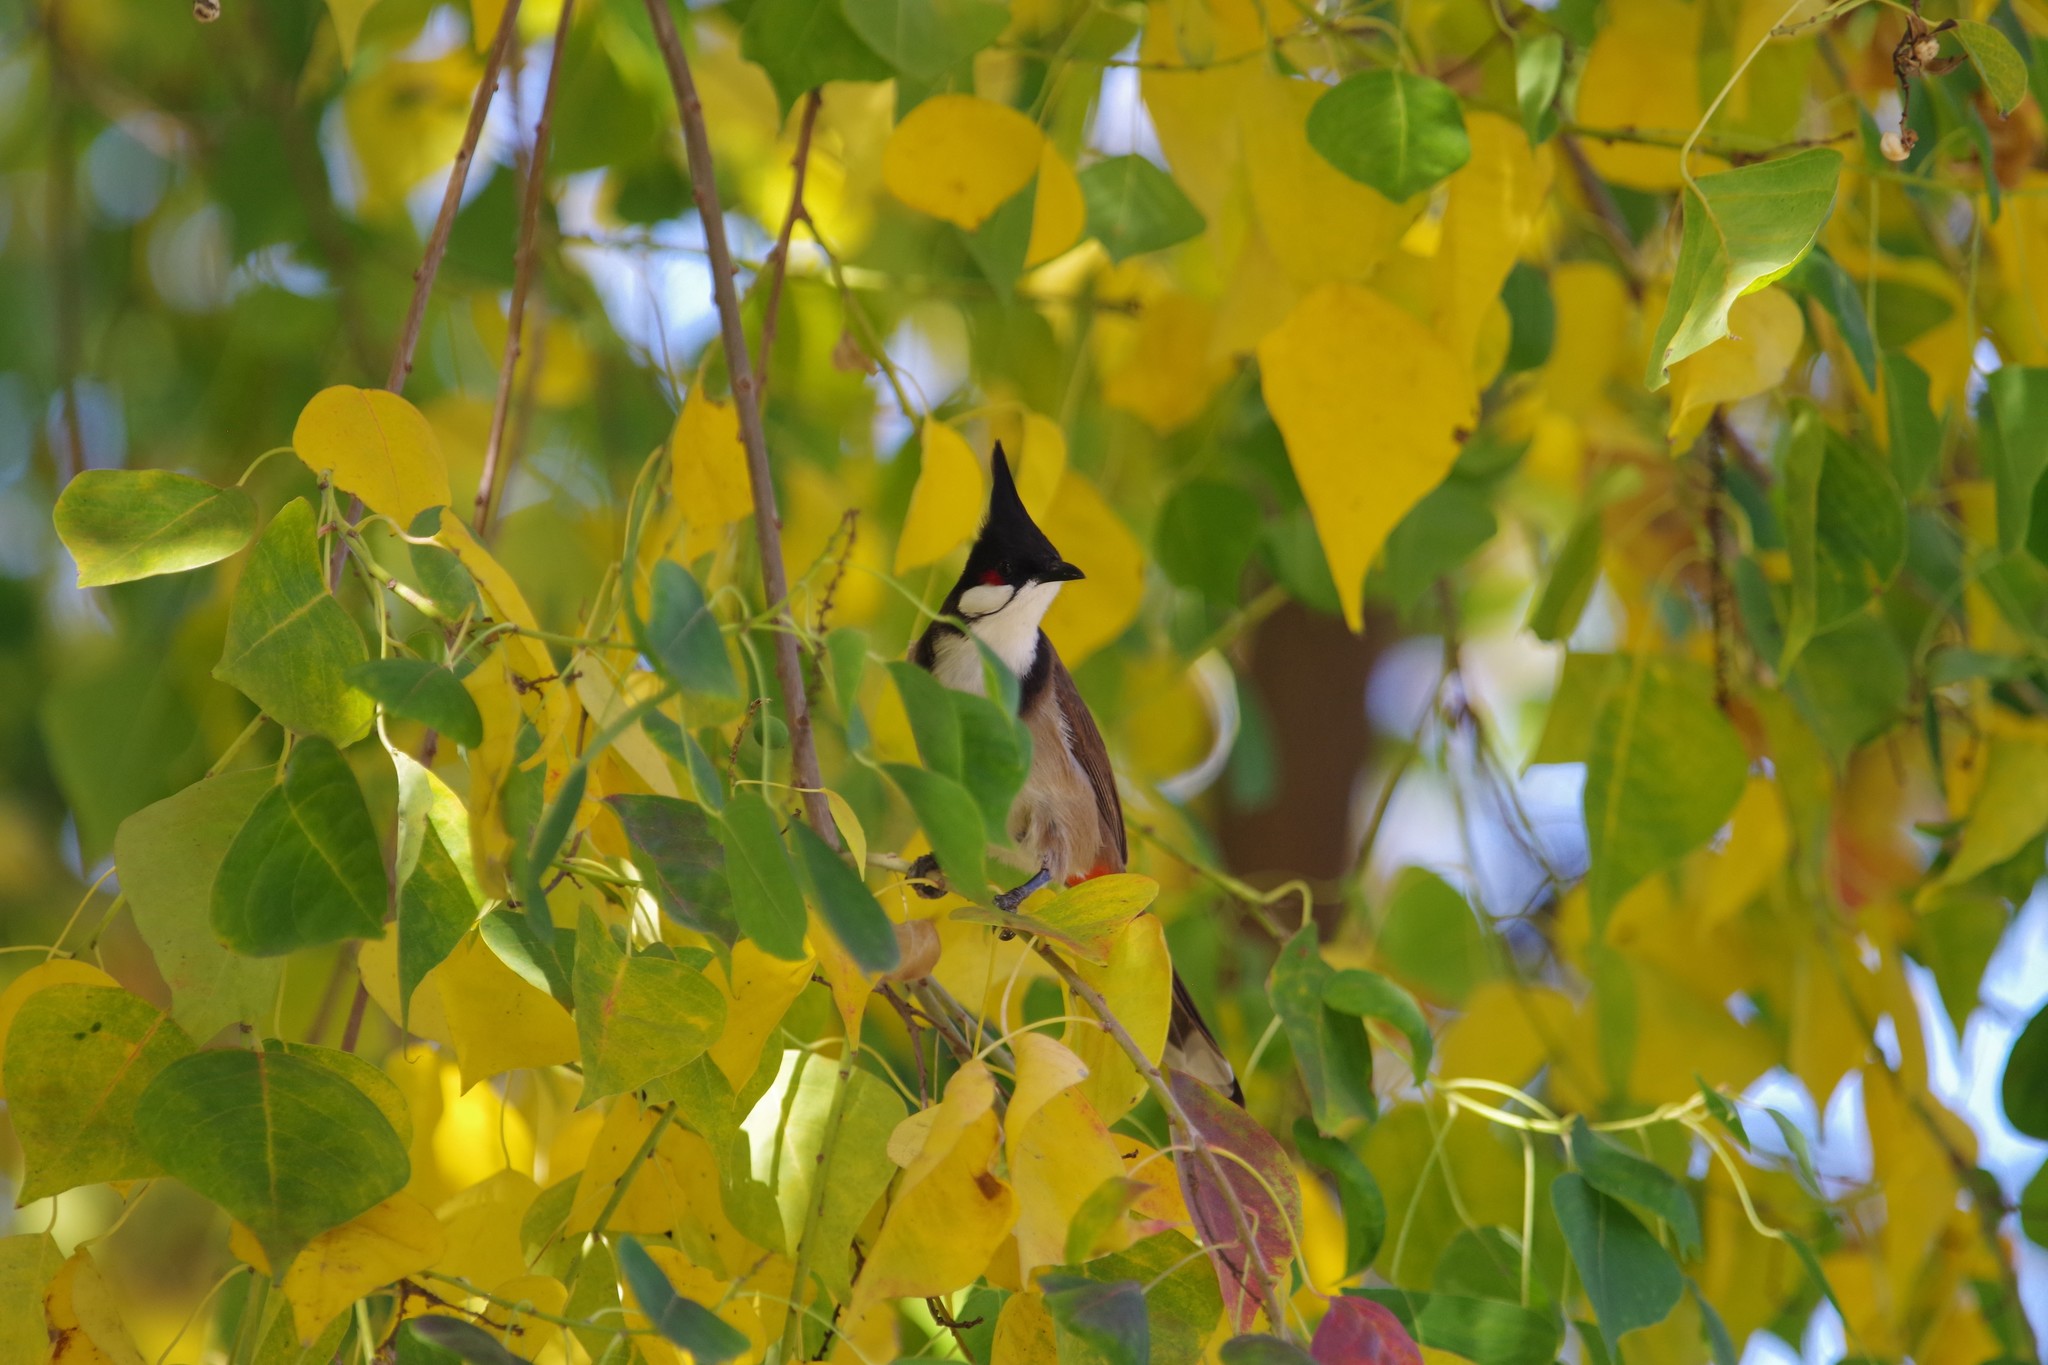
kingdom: Animalia
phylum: Chordata
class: Aves
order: Passeriformes
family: Pycnonotidae
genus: Pycnonotus
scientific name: Pycnonotus jocosus
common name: Red-whiskered bulbul
